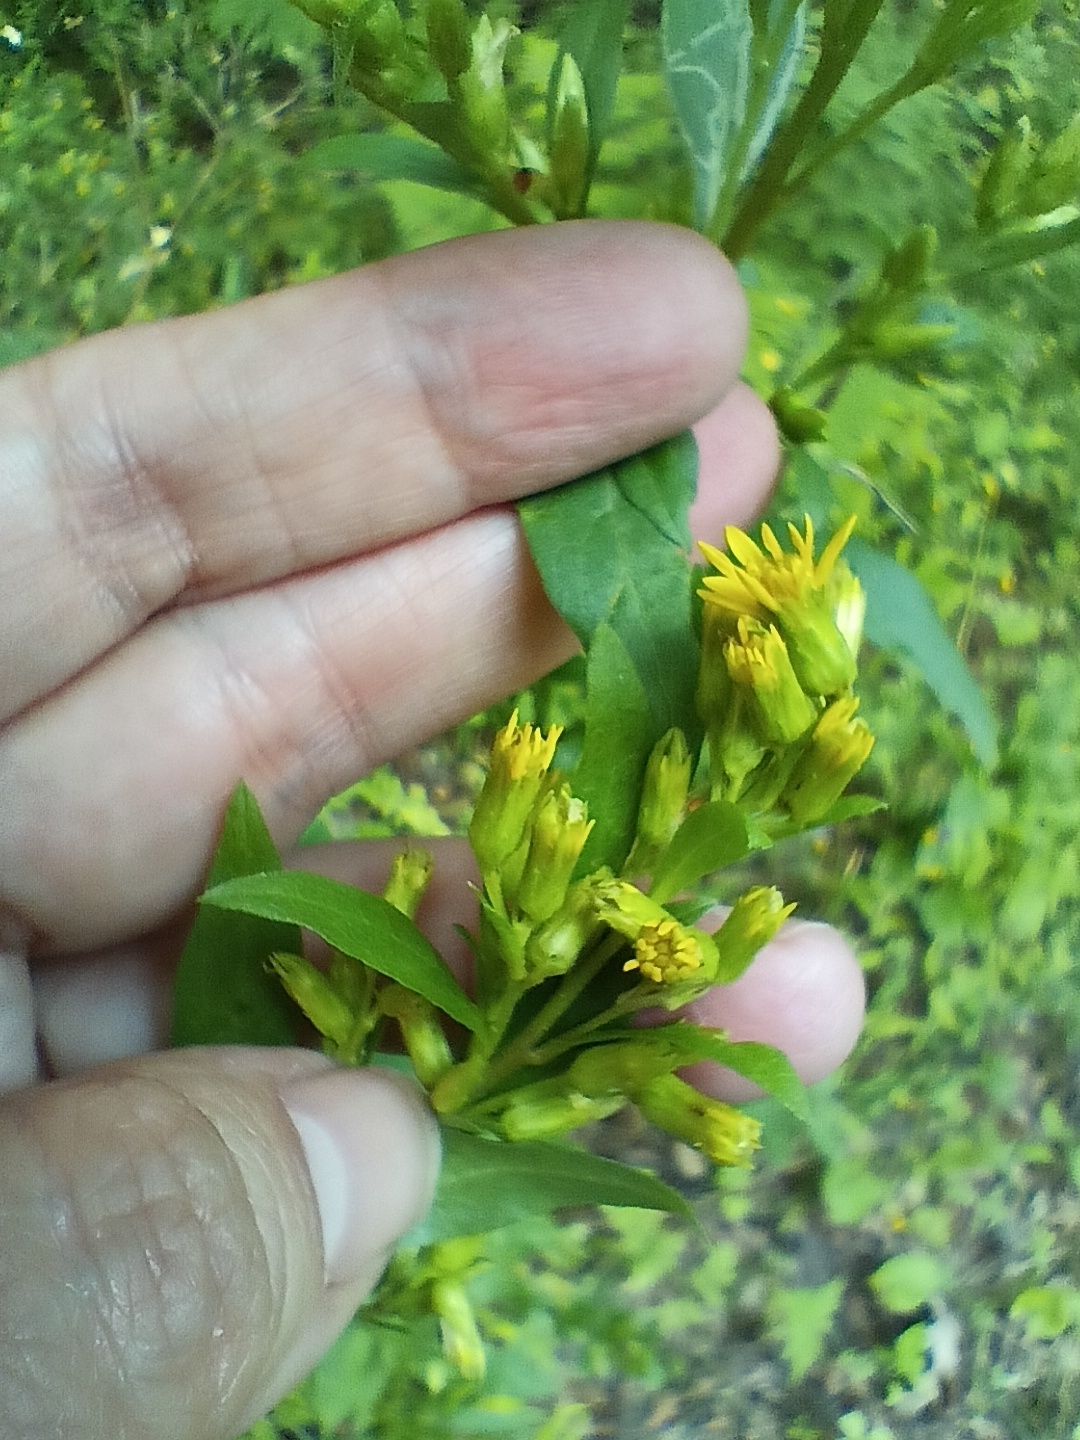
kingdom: Plantae
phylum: Tracheophyta
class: Magnoliopsida
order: Asterales
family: Asteraceae
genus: Solidago
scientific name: Solidago virgaurea
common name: Goldenrod
